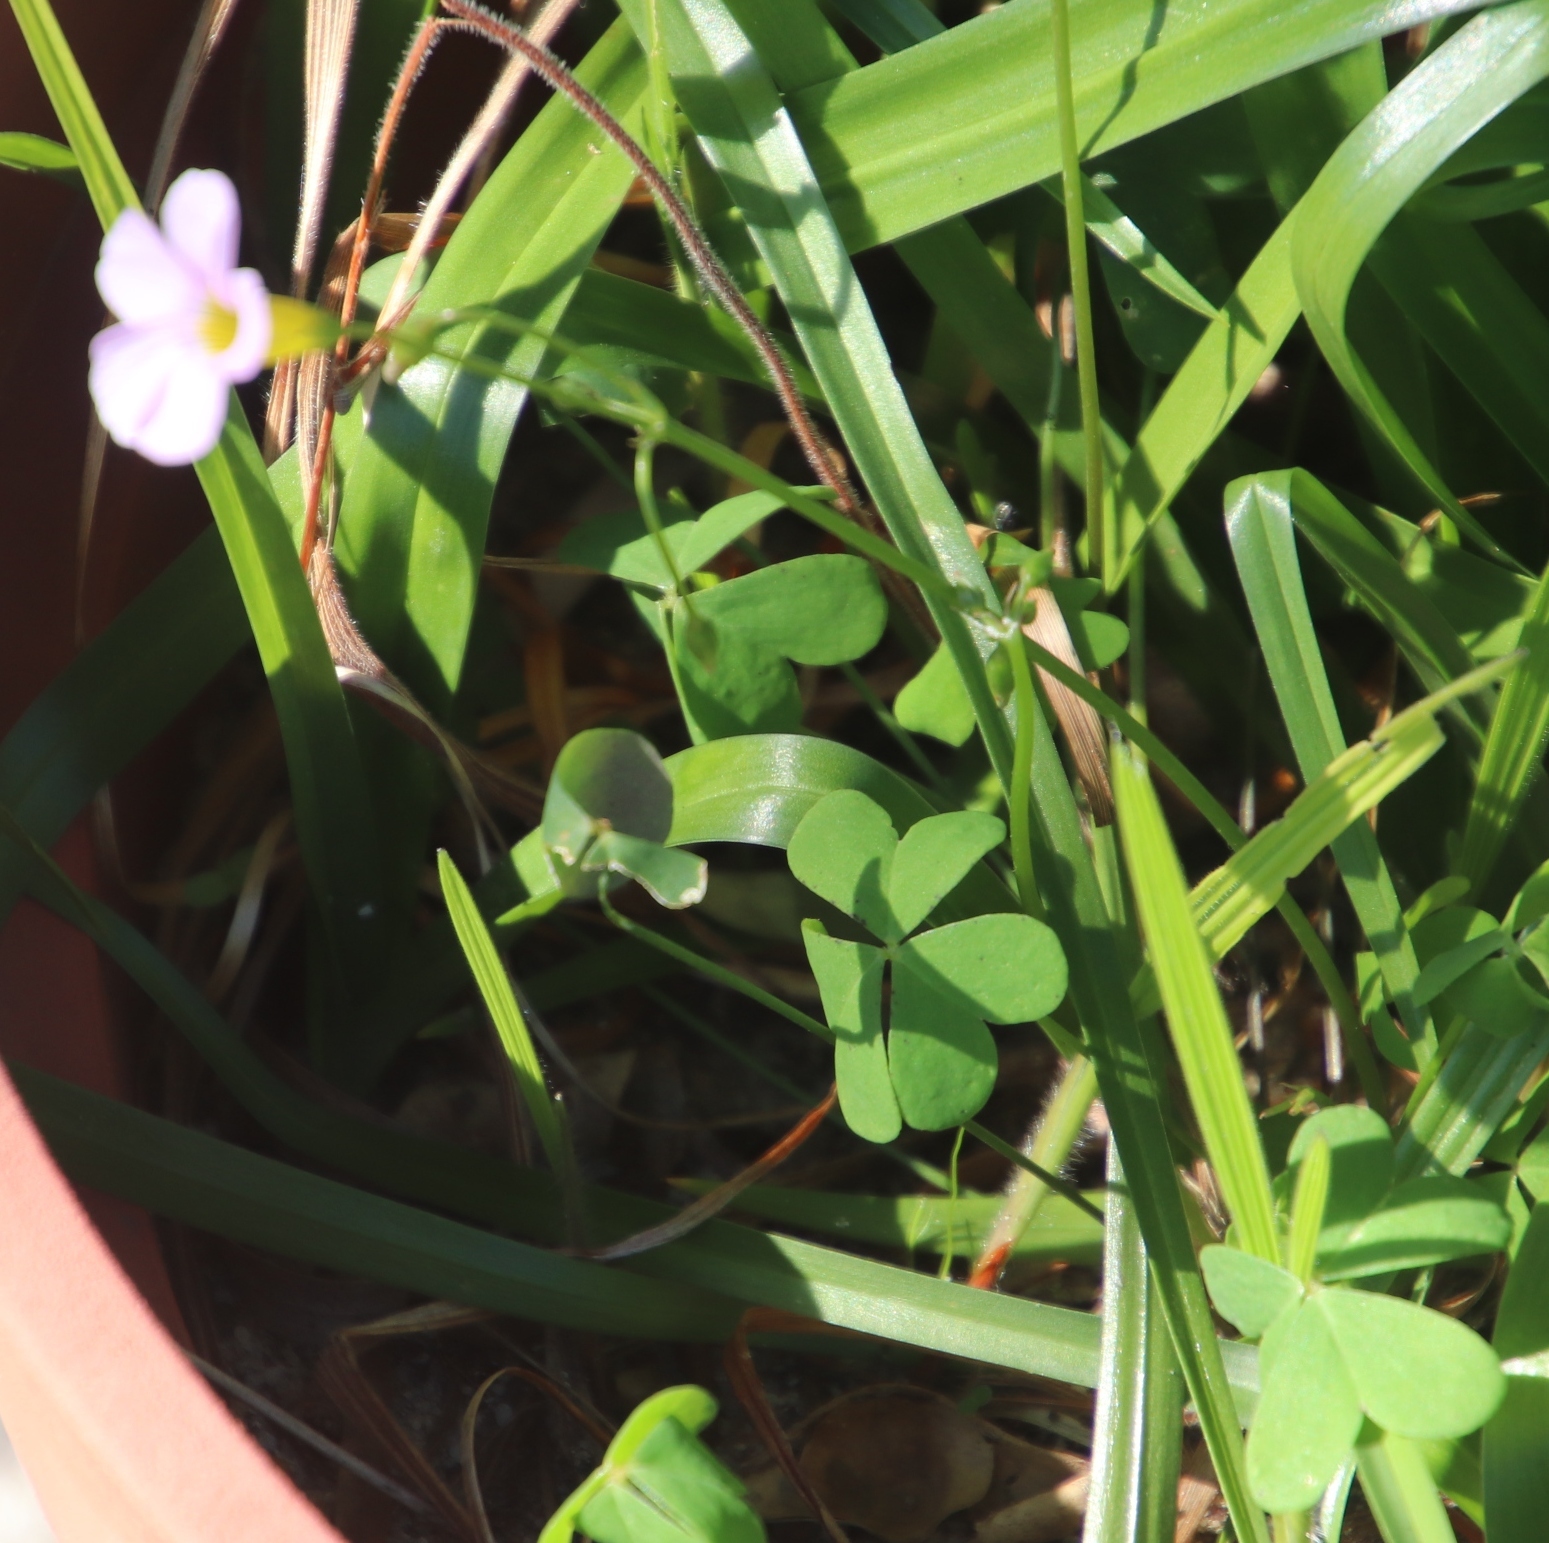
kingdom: Plantae
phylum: Tracheophyta
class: Magnoliopsida
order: Oxalidales
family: Oxalidaceae
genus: Oxalis
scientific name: Oxalis caprina
